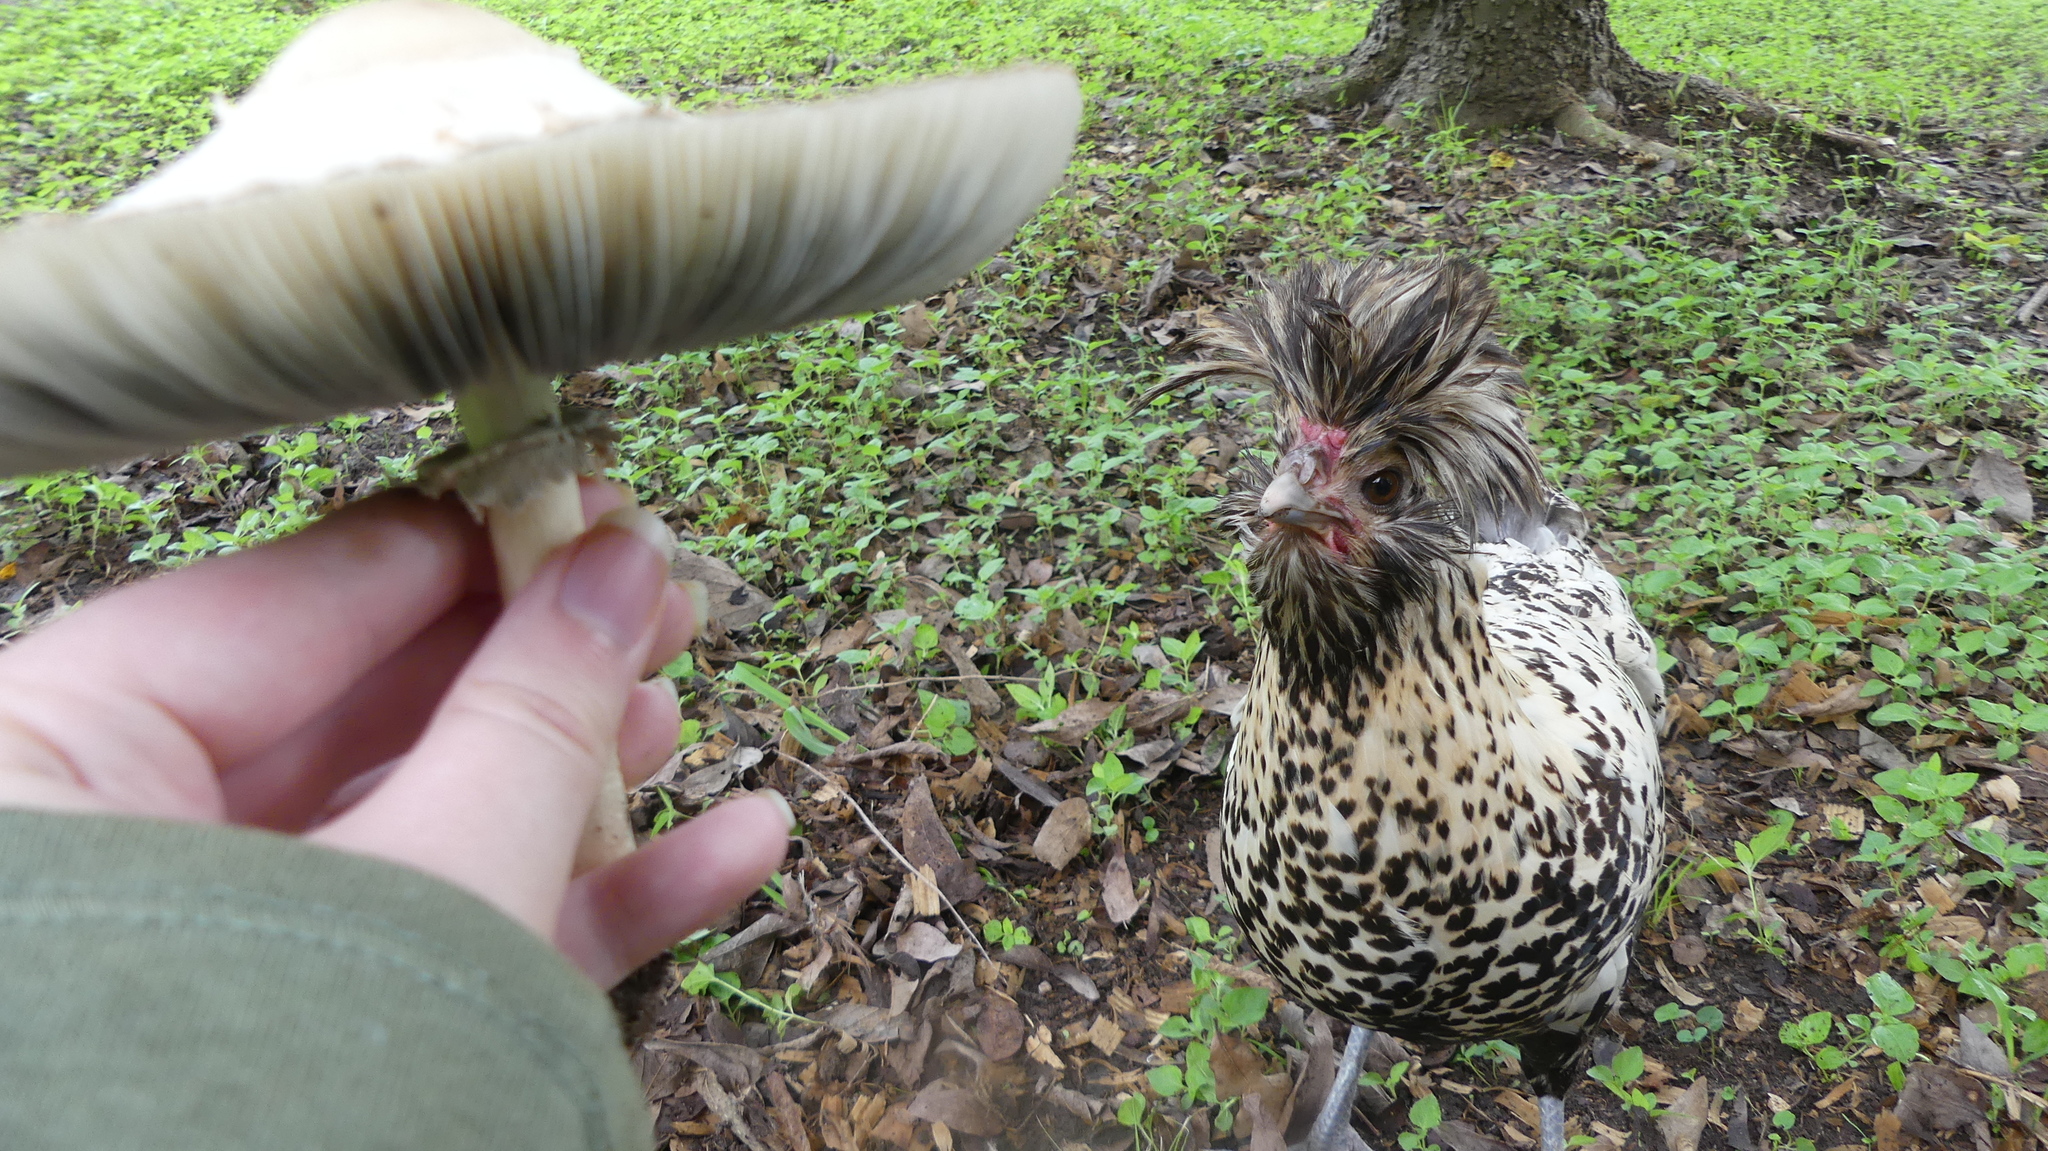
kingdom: Fungi
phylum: Basidiomycota
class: Agaricomycetes
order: Agaricales
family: Agaricaceae
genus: Chlorophyllum
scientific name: Chlorophyllum molybdites
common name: False parasol
